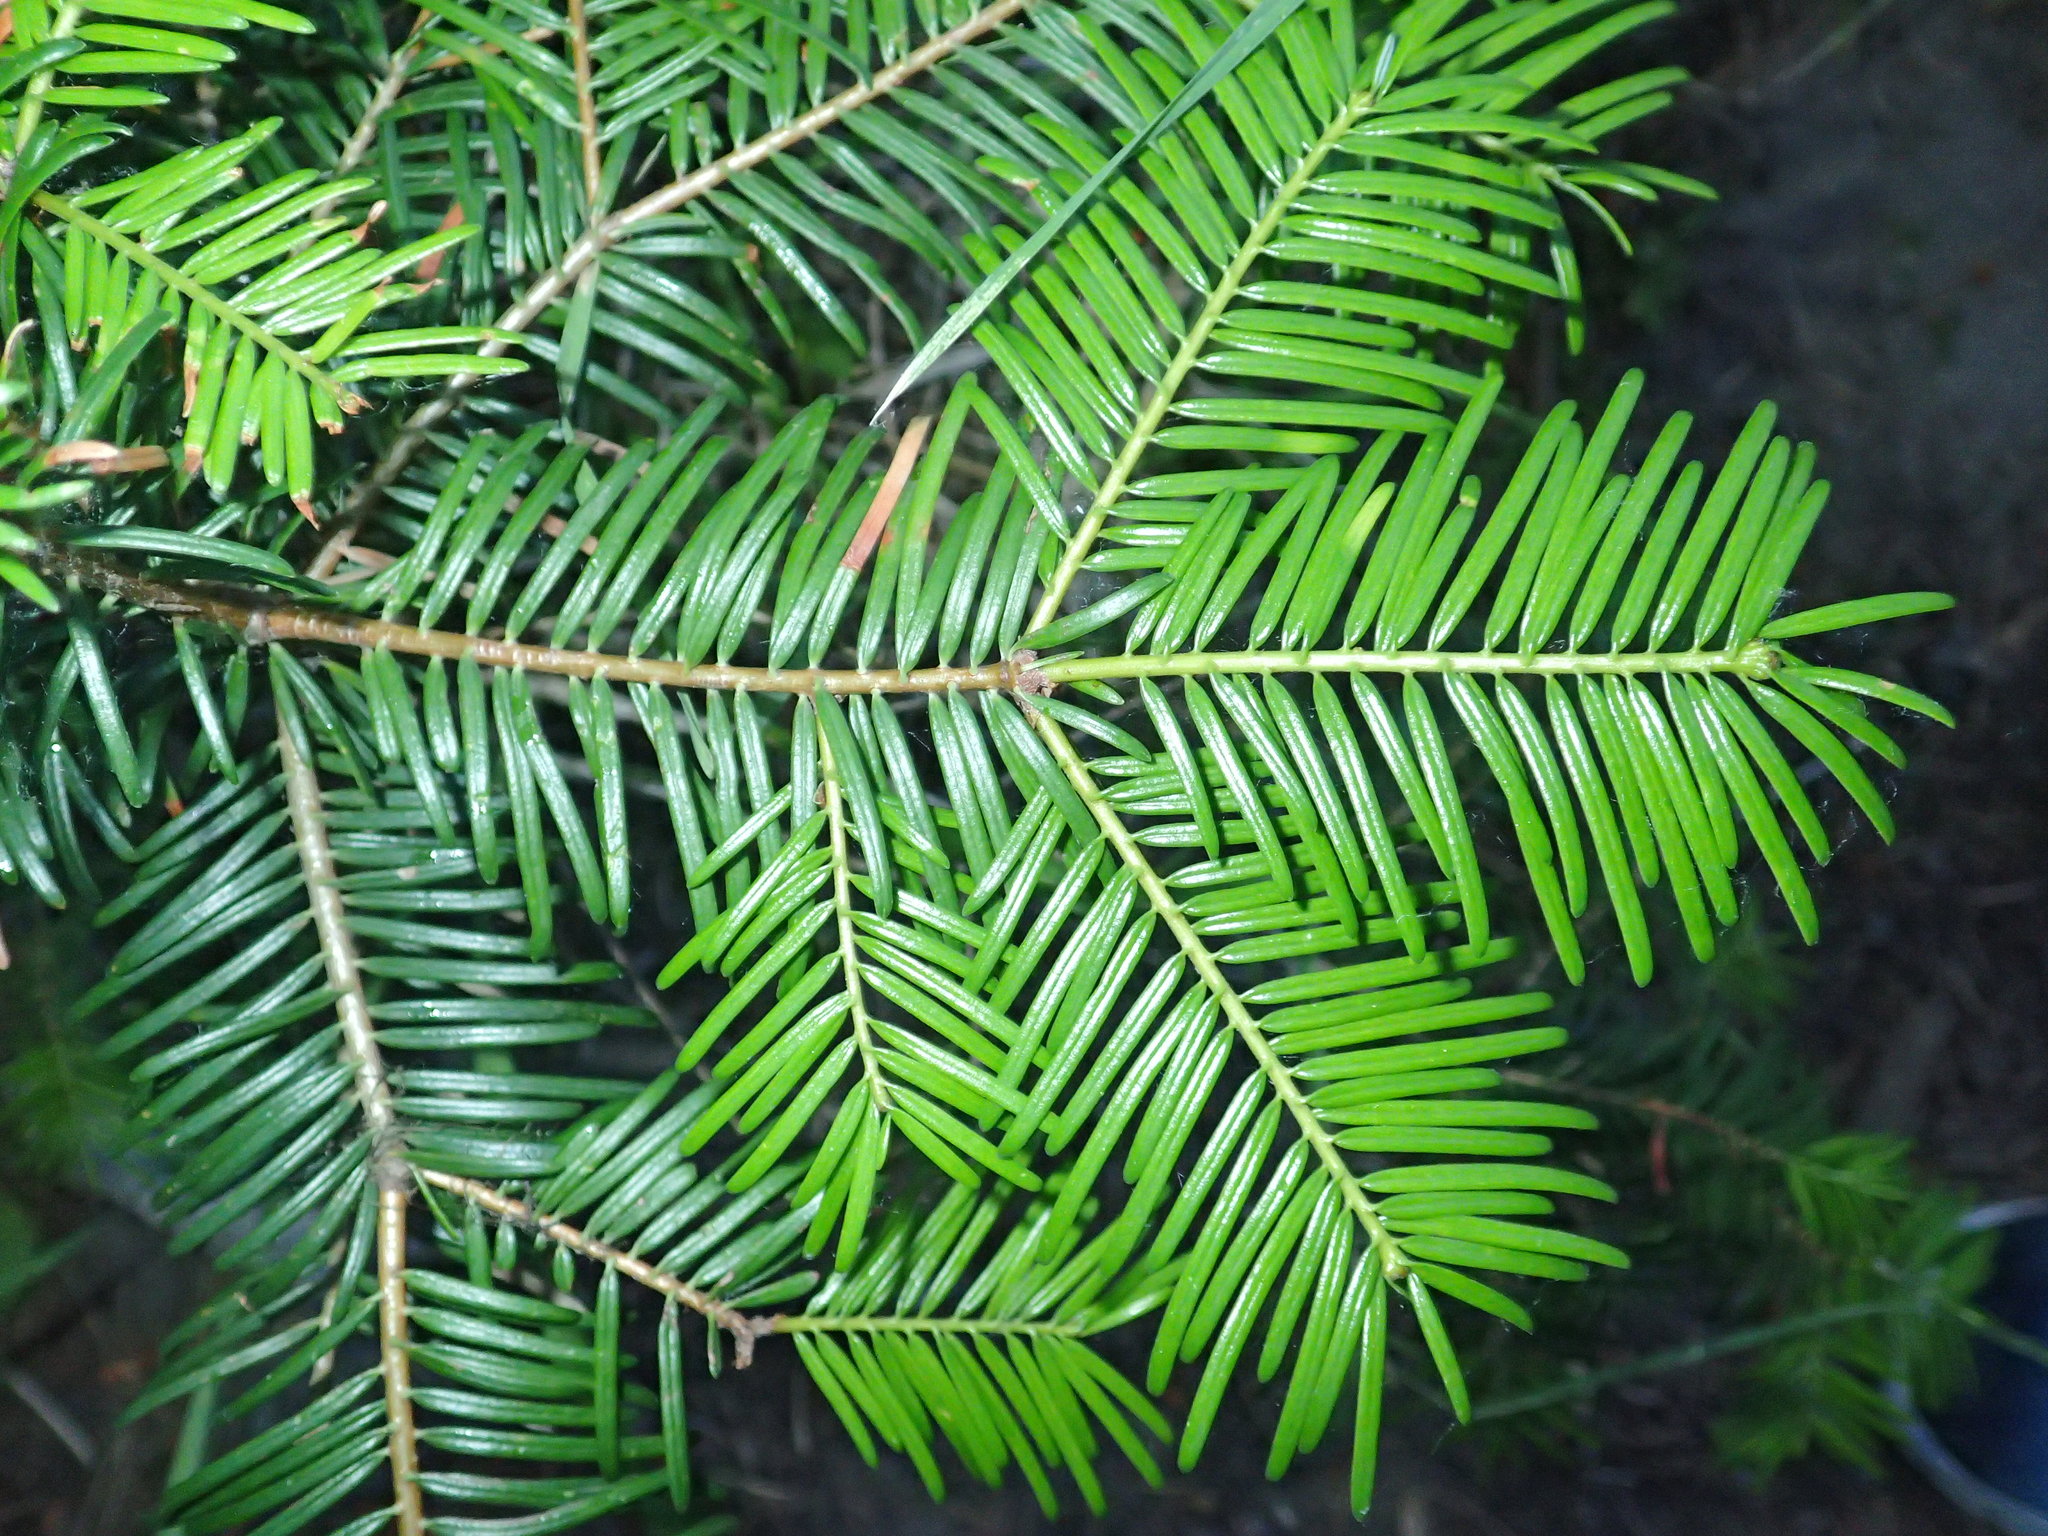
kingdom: Plantae
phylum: Tracheophyta
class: Pinopsida
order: Pinales
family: Pinaceae
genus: Abies
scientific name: Abies grandis
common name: Giant fir
